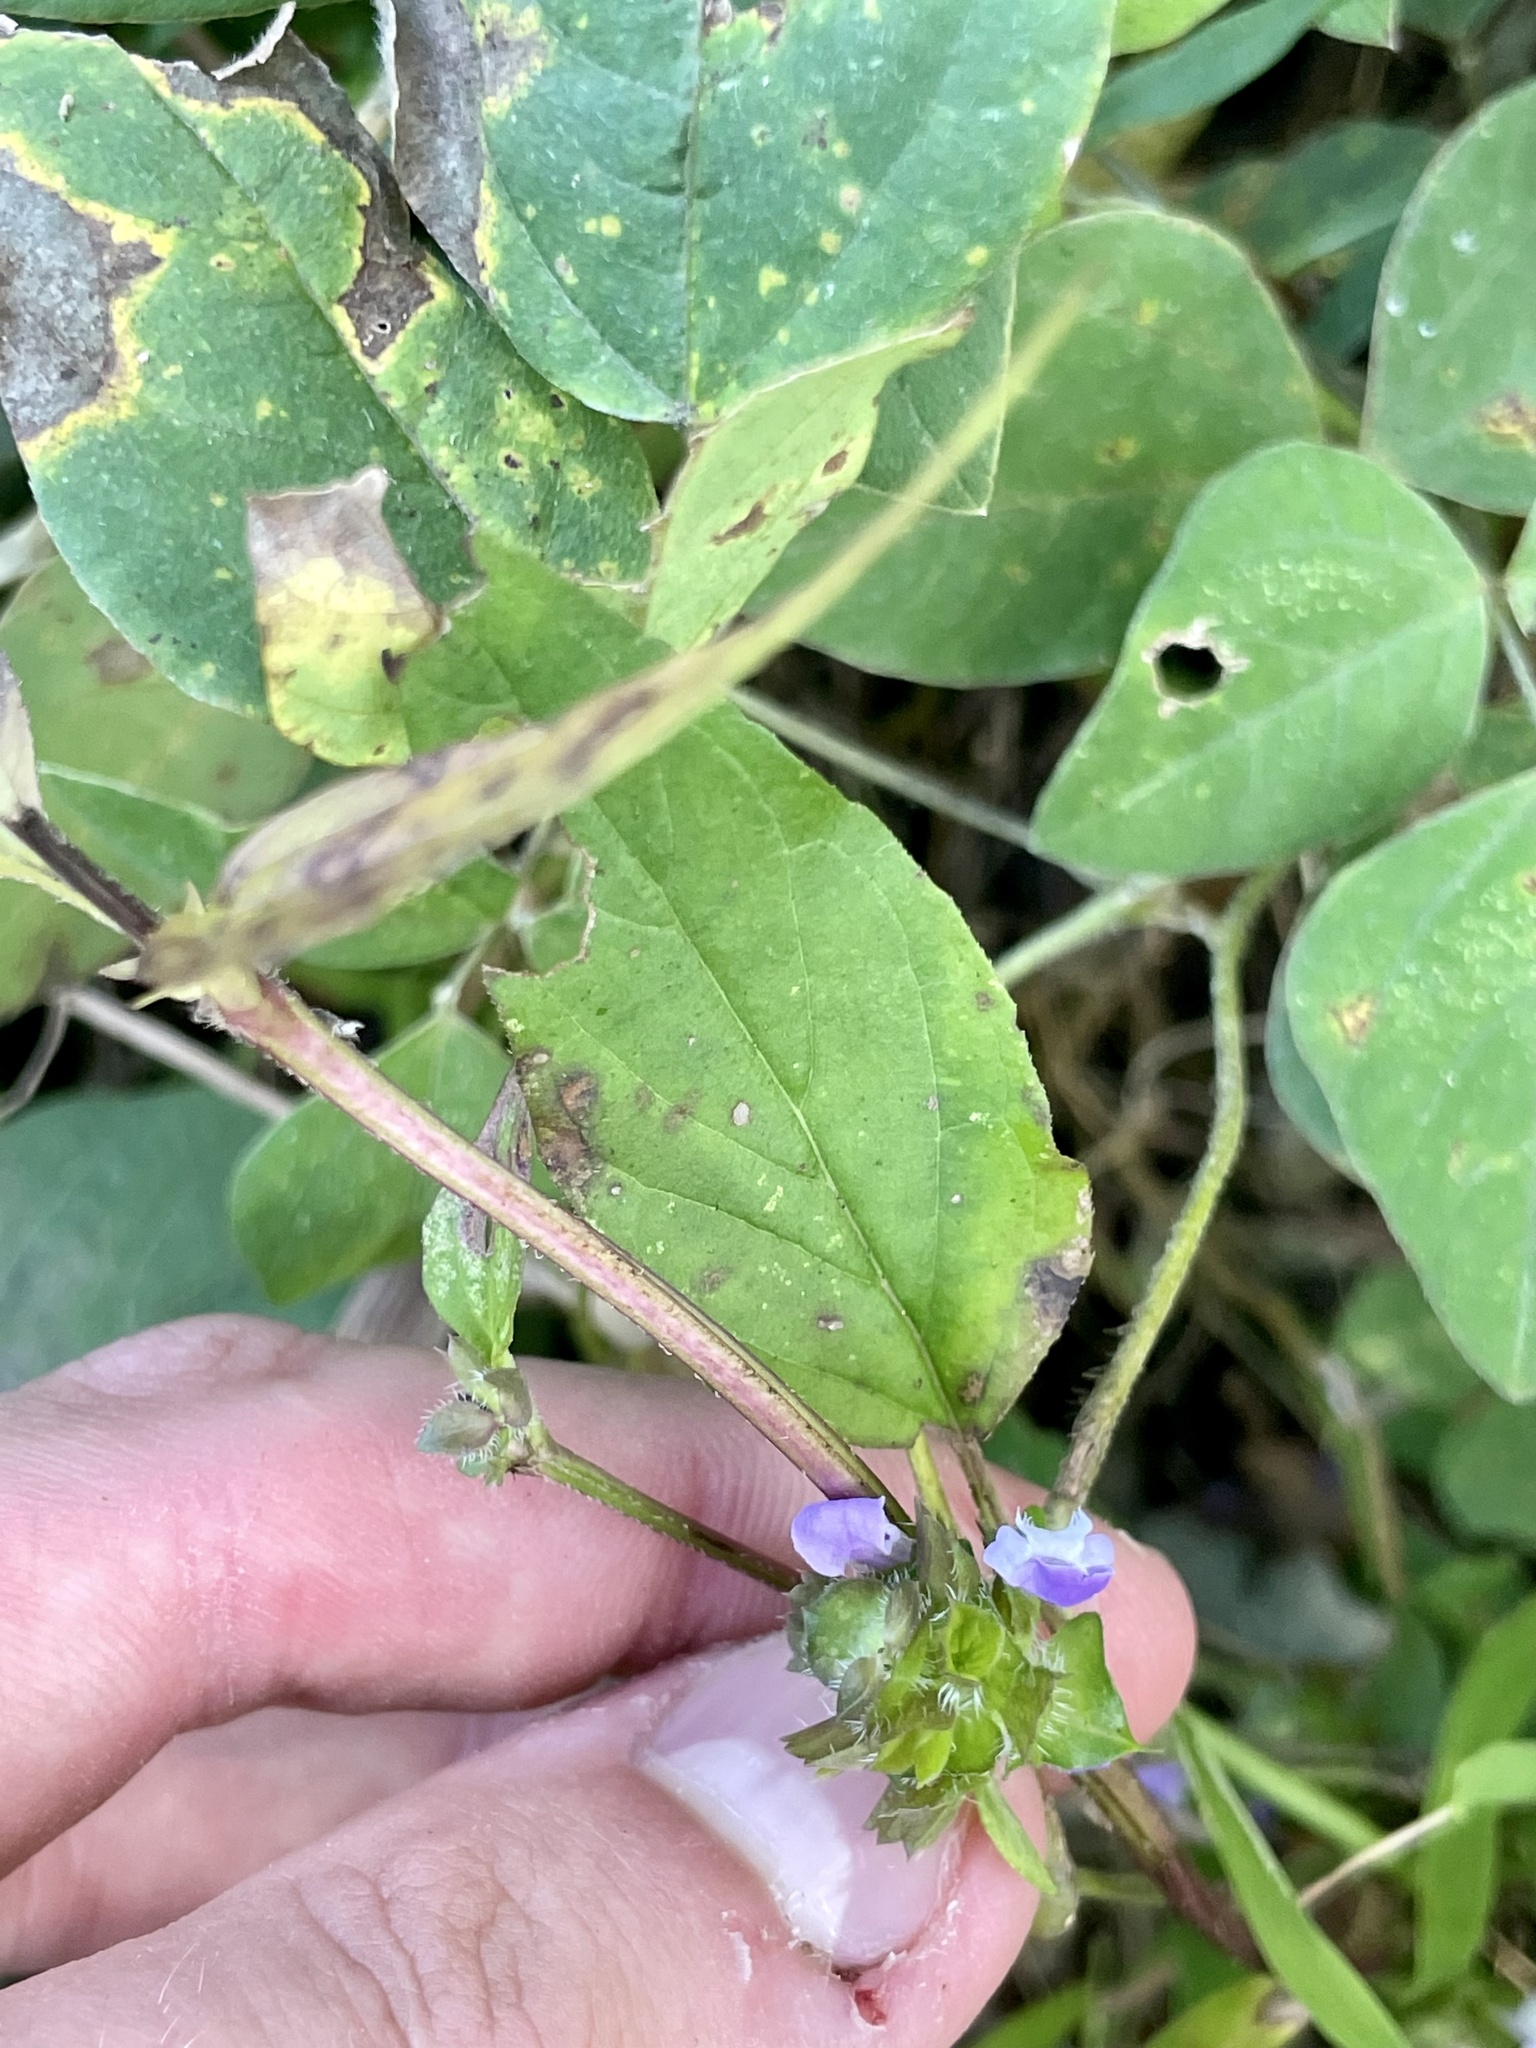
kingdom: Plantae
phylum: Tracheophyta
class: Magnoliopsida
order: Lamiales
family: Lamiaceae
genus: Prunella
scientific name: Prunella vulgaris
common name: Heal-all
